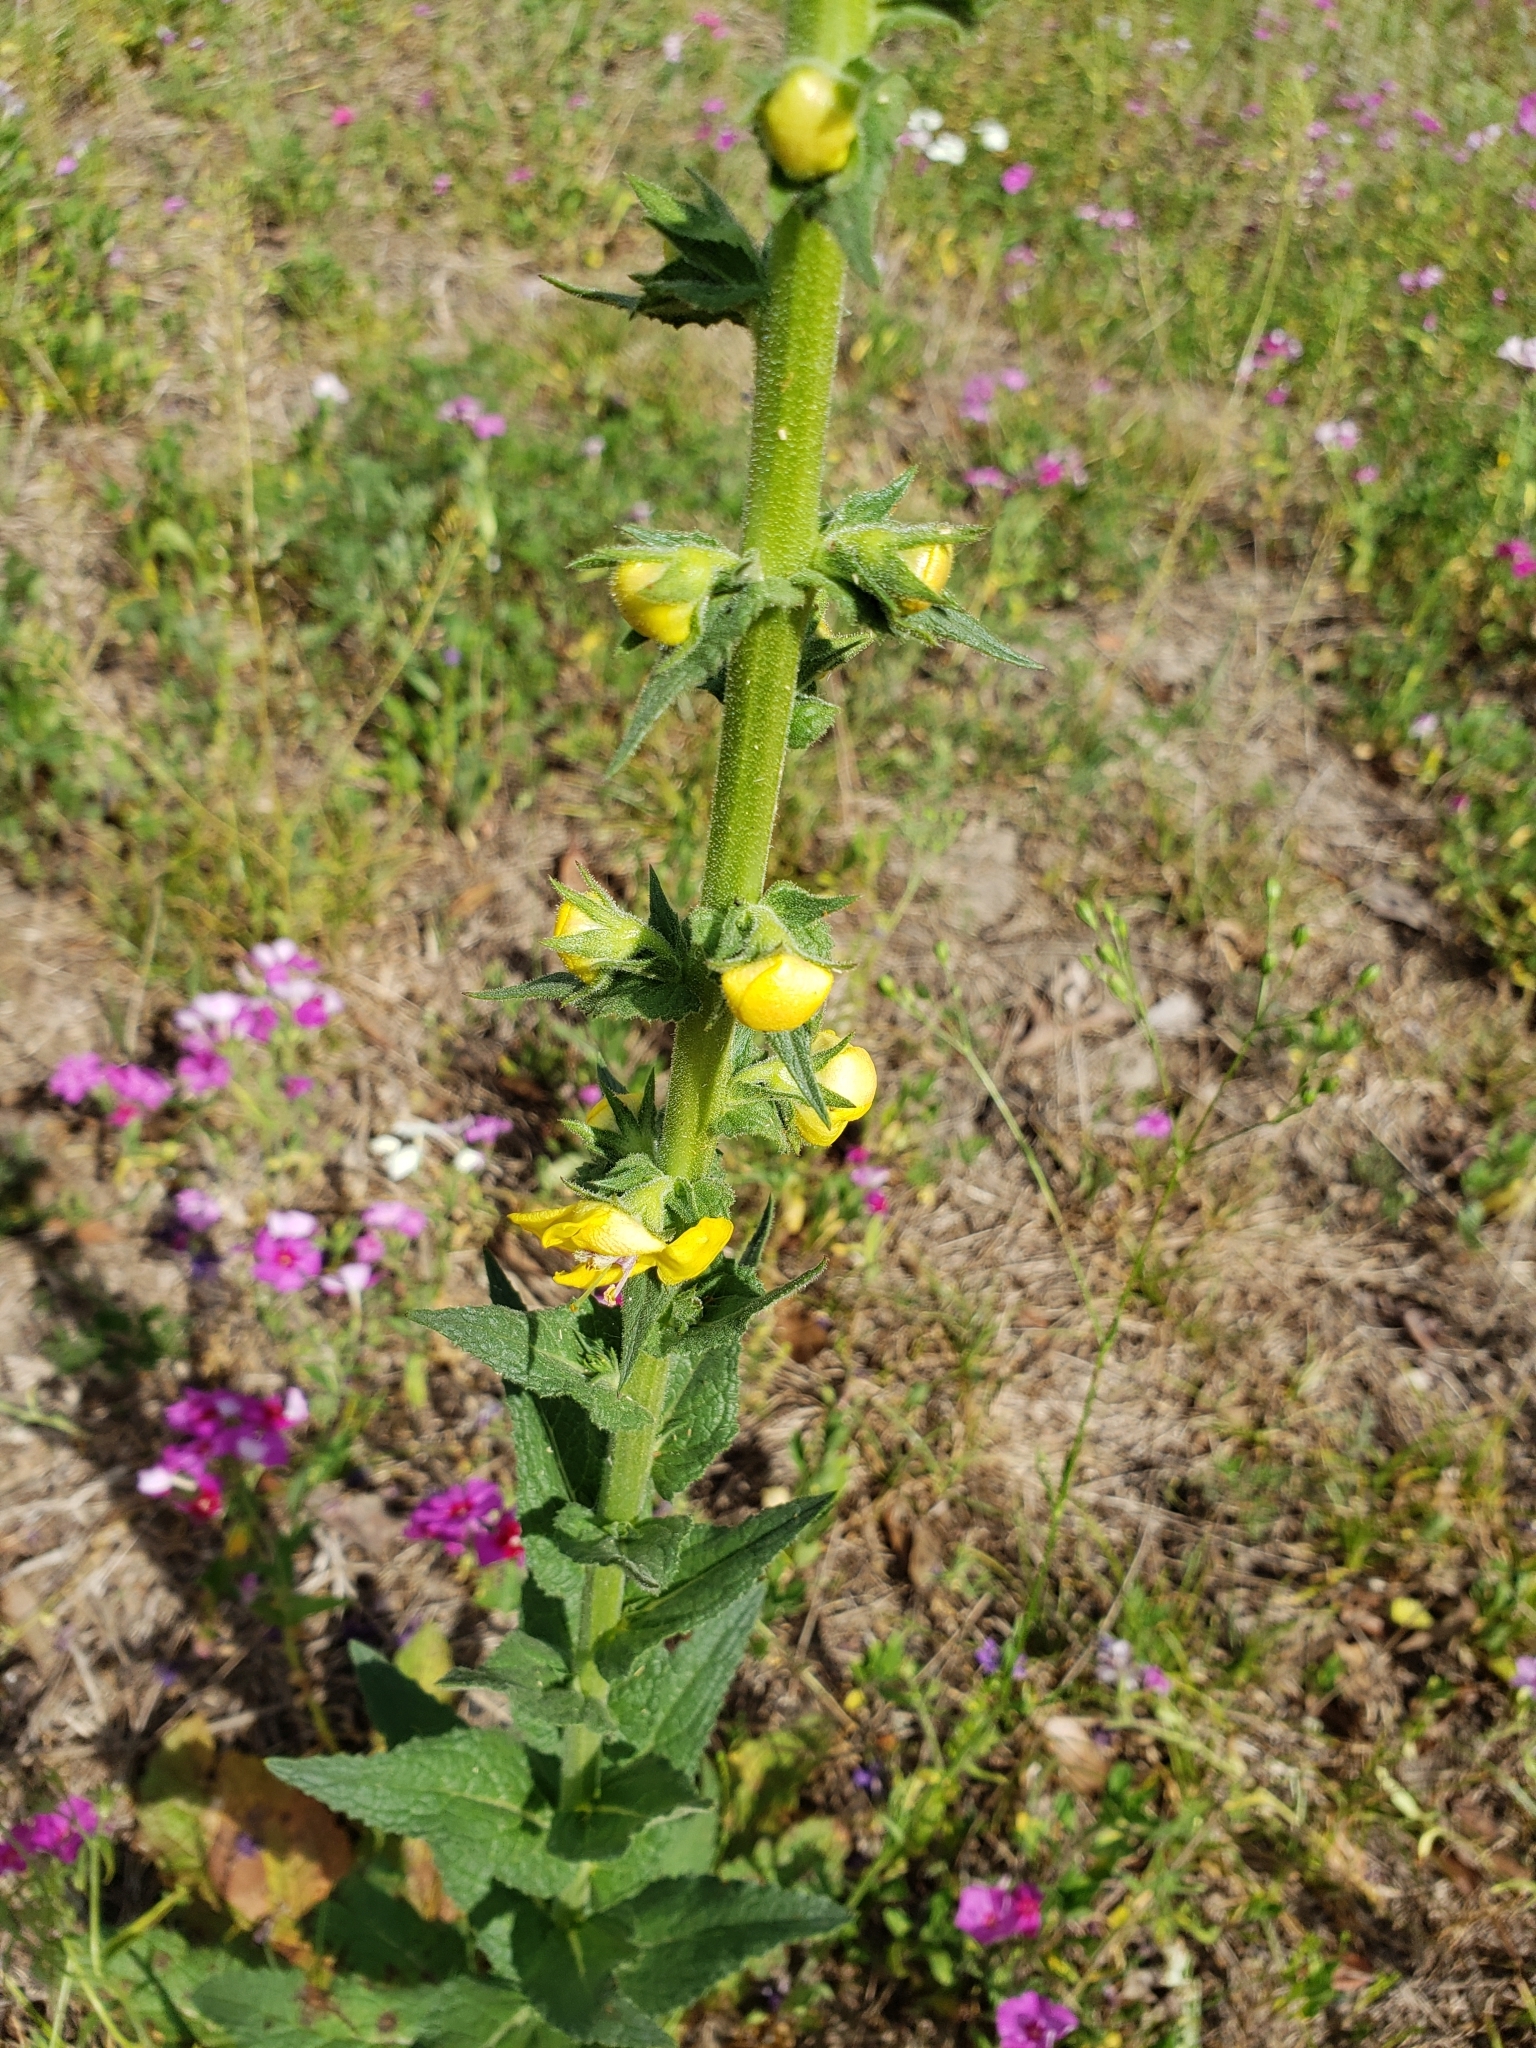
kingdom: Plantae
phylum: Tracheophyta
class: Magnoliopsida
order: Lamiales
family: Scrophulariaceae
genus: Verbascum
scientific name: Verbascum virgatum
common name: Twiggy mullein
